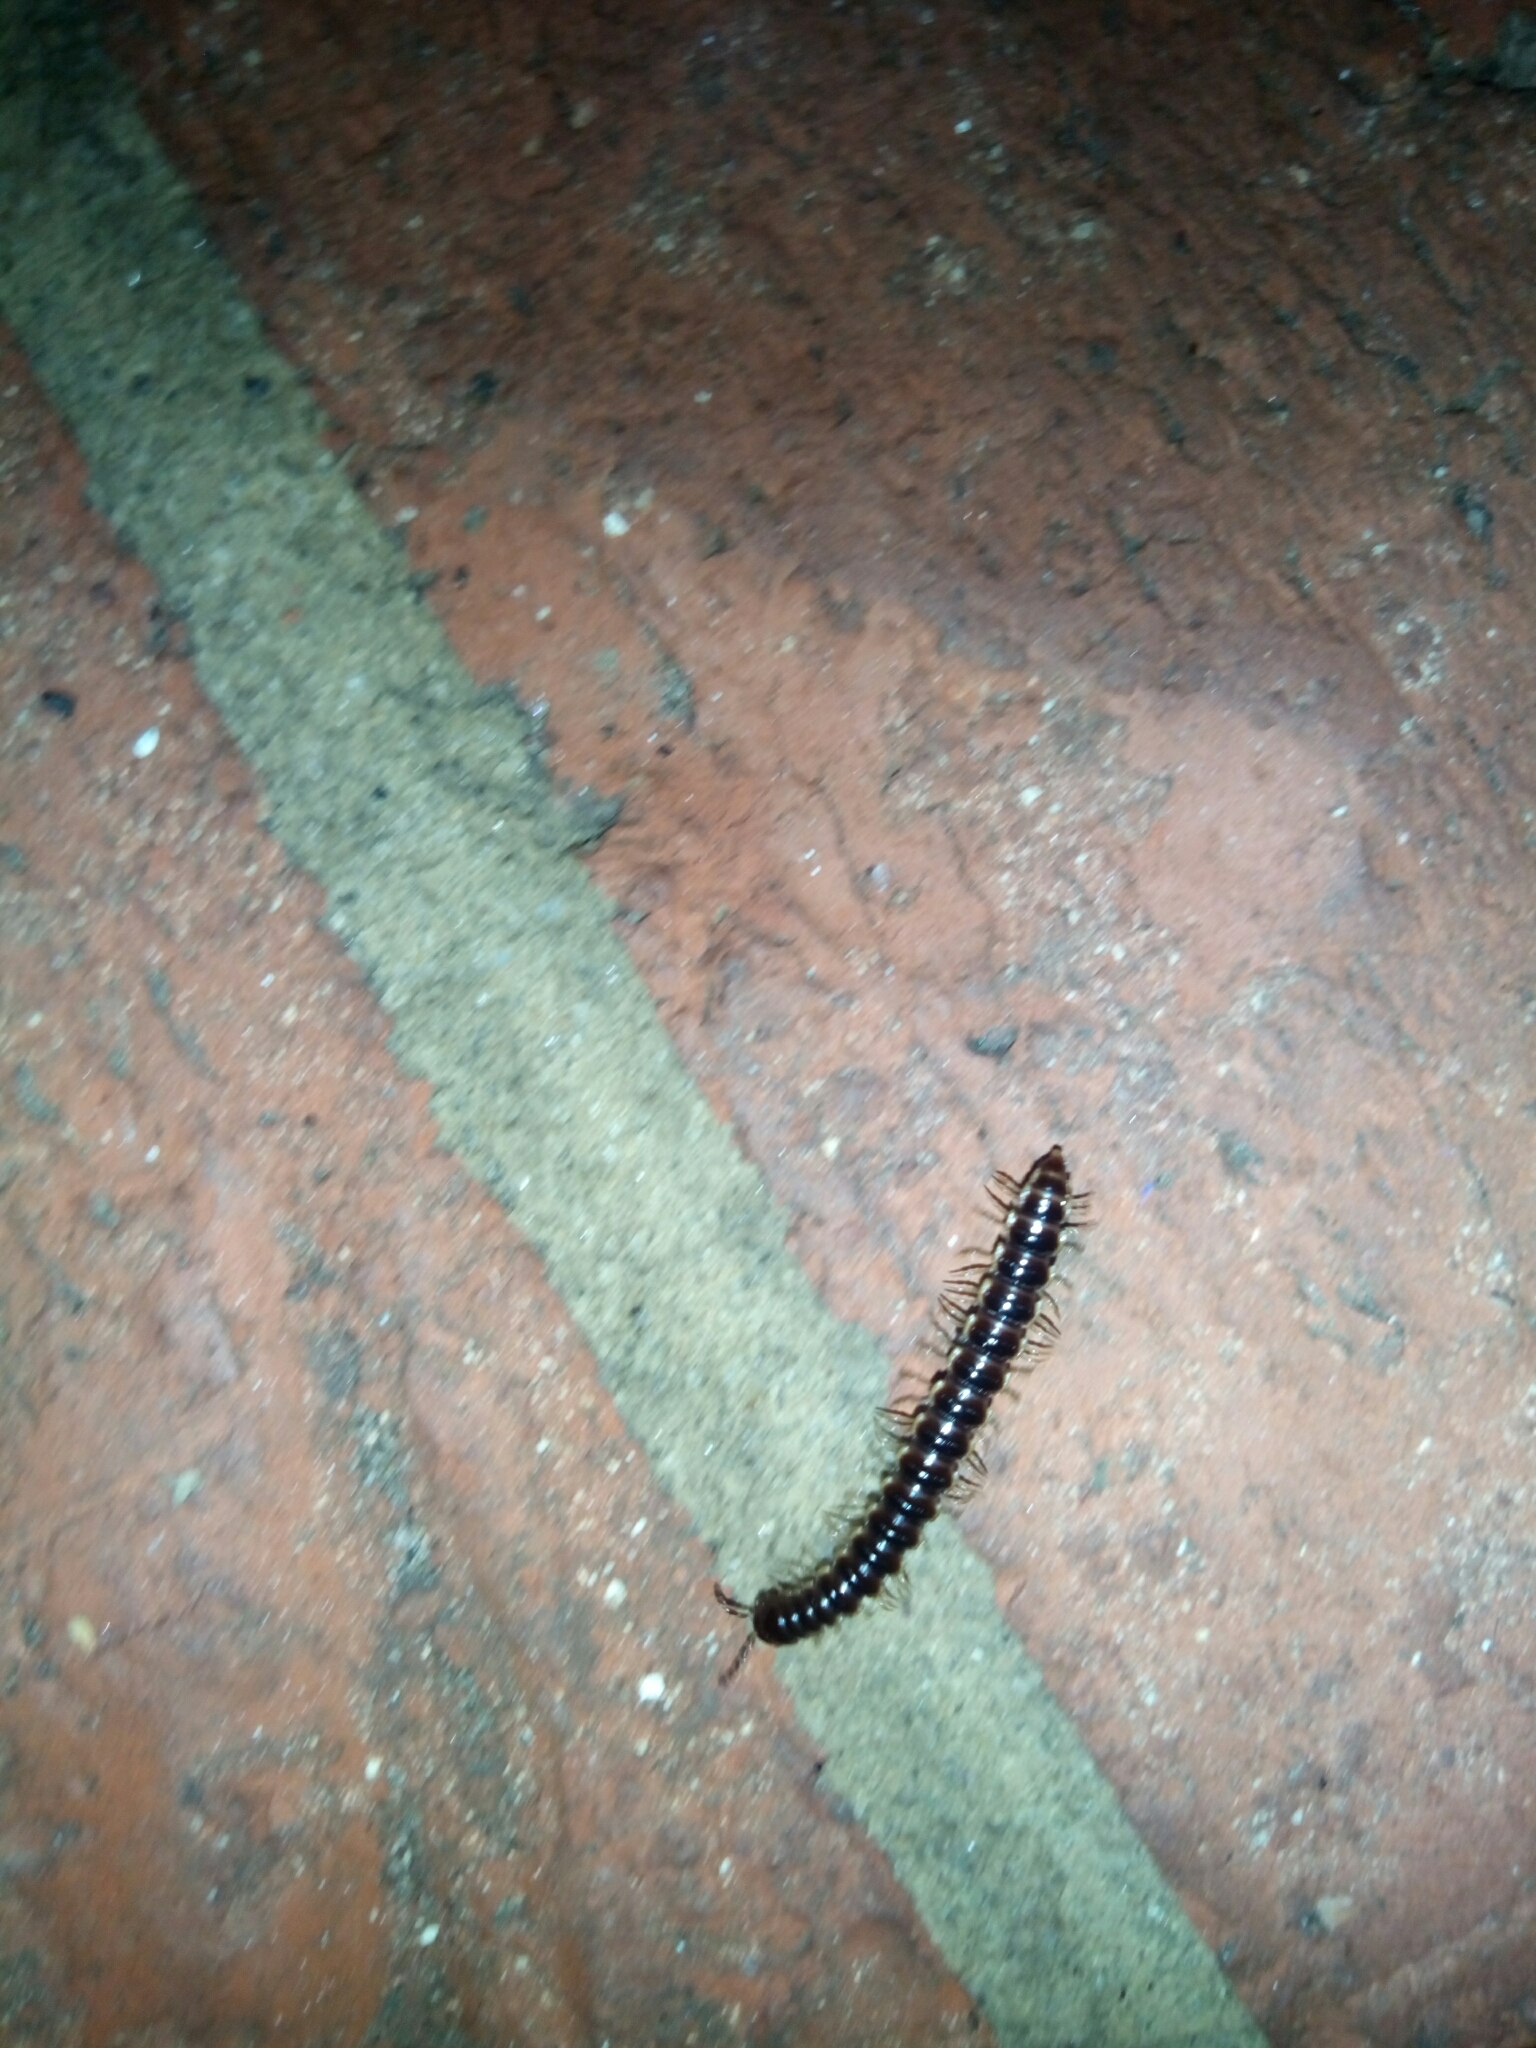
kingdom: Animalia
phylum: Arthropoda
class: Diplopoda
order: Polydesmida
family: Paradoxosomatidae
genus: Oxidus
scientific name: Oxidus gracilis
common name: Greenhouse millipede
